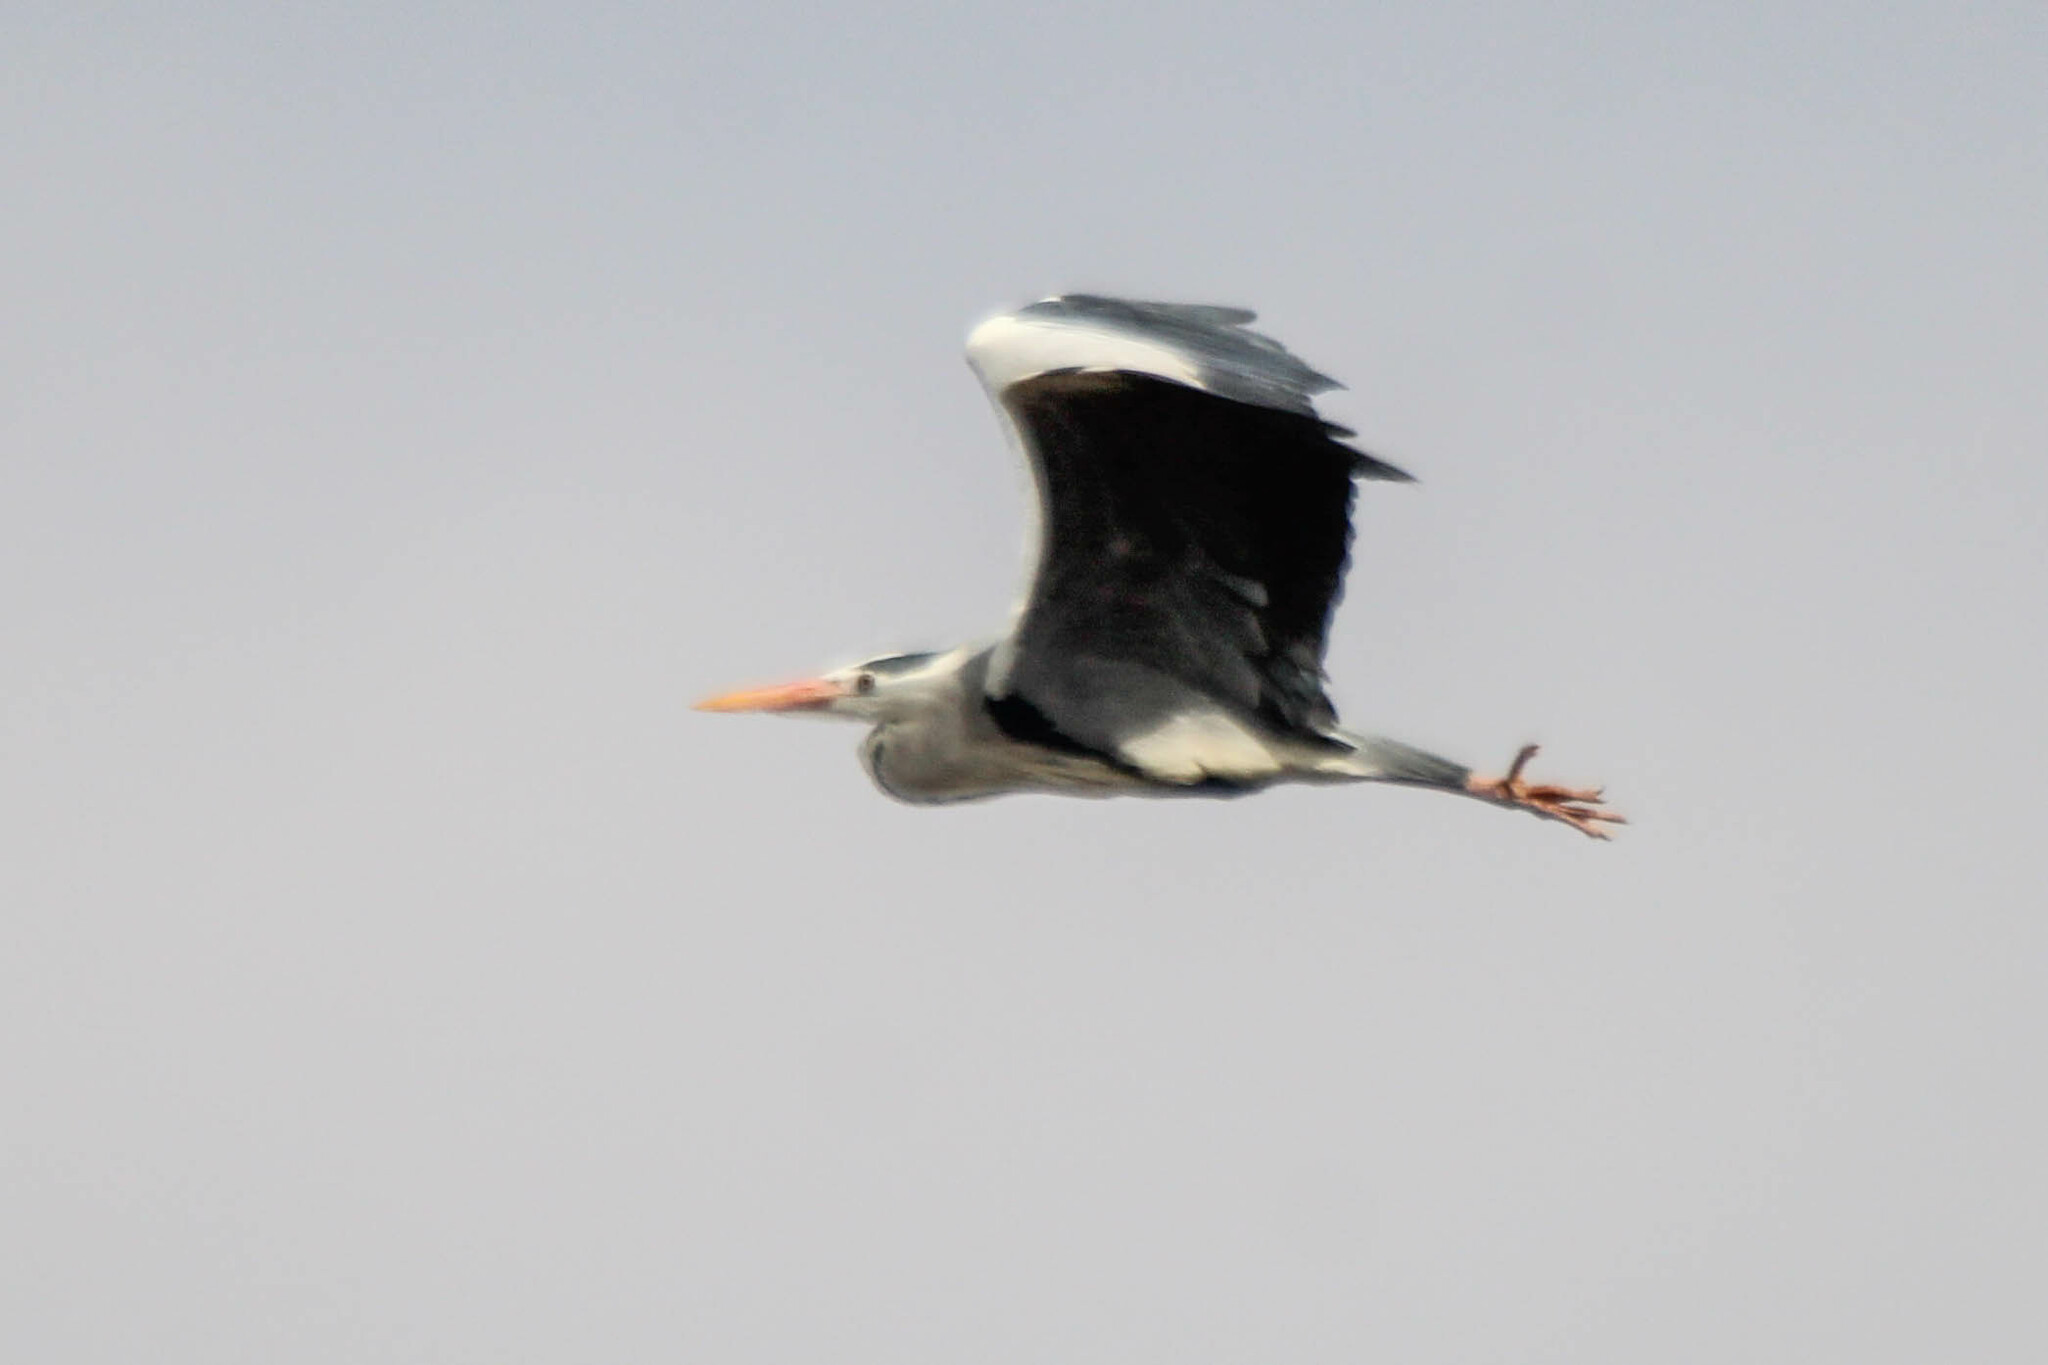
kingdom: Animalia
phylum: Chordata
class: Aves
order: Pelecaniformes
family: Ardeidae
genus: Ardea
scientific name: Ardea cinerea
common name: Grey heron
